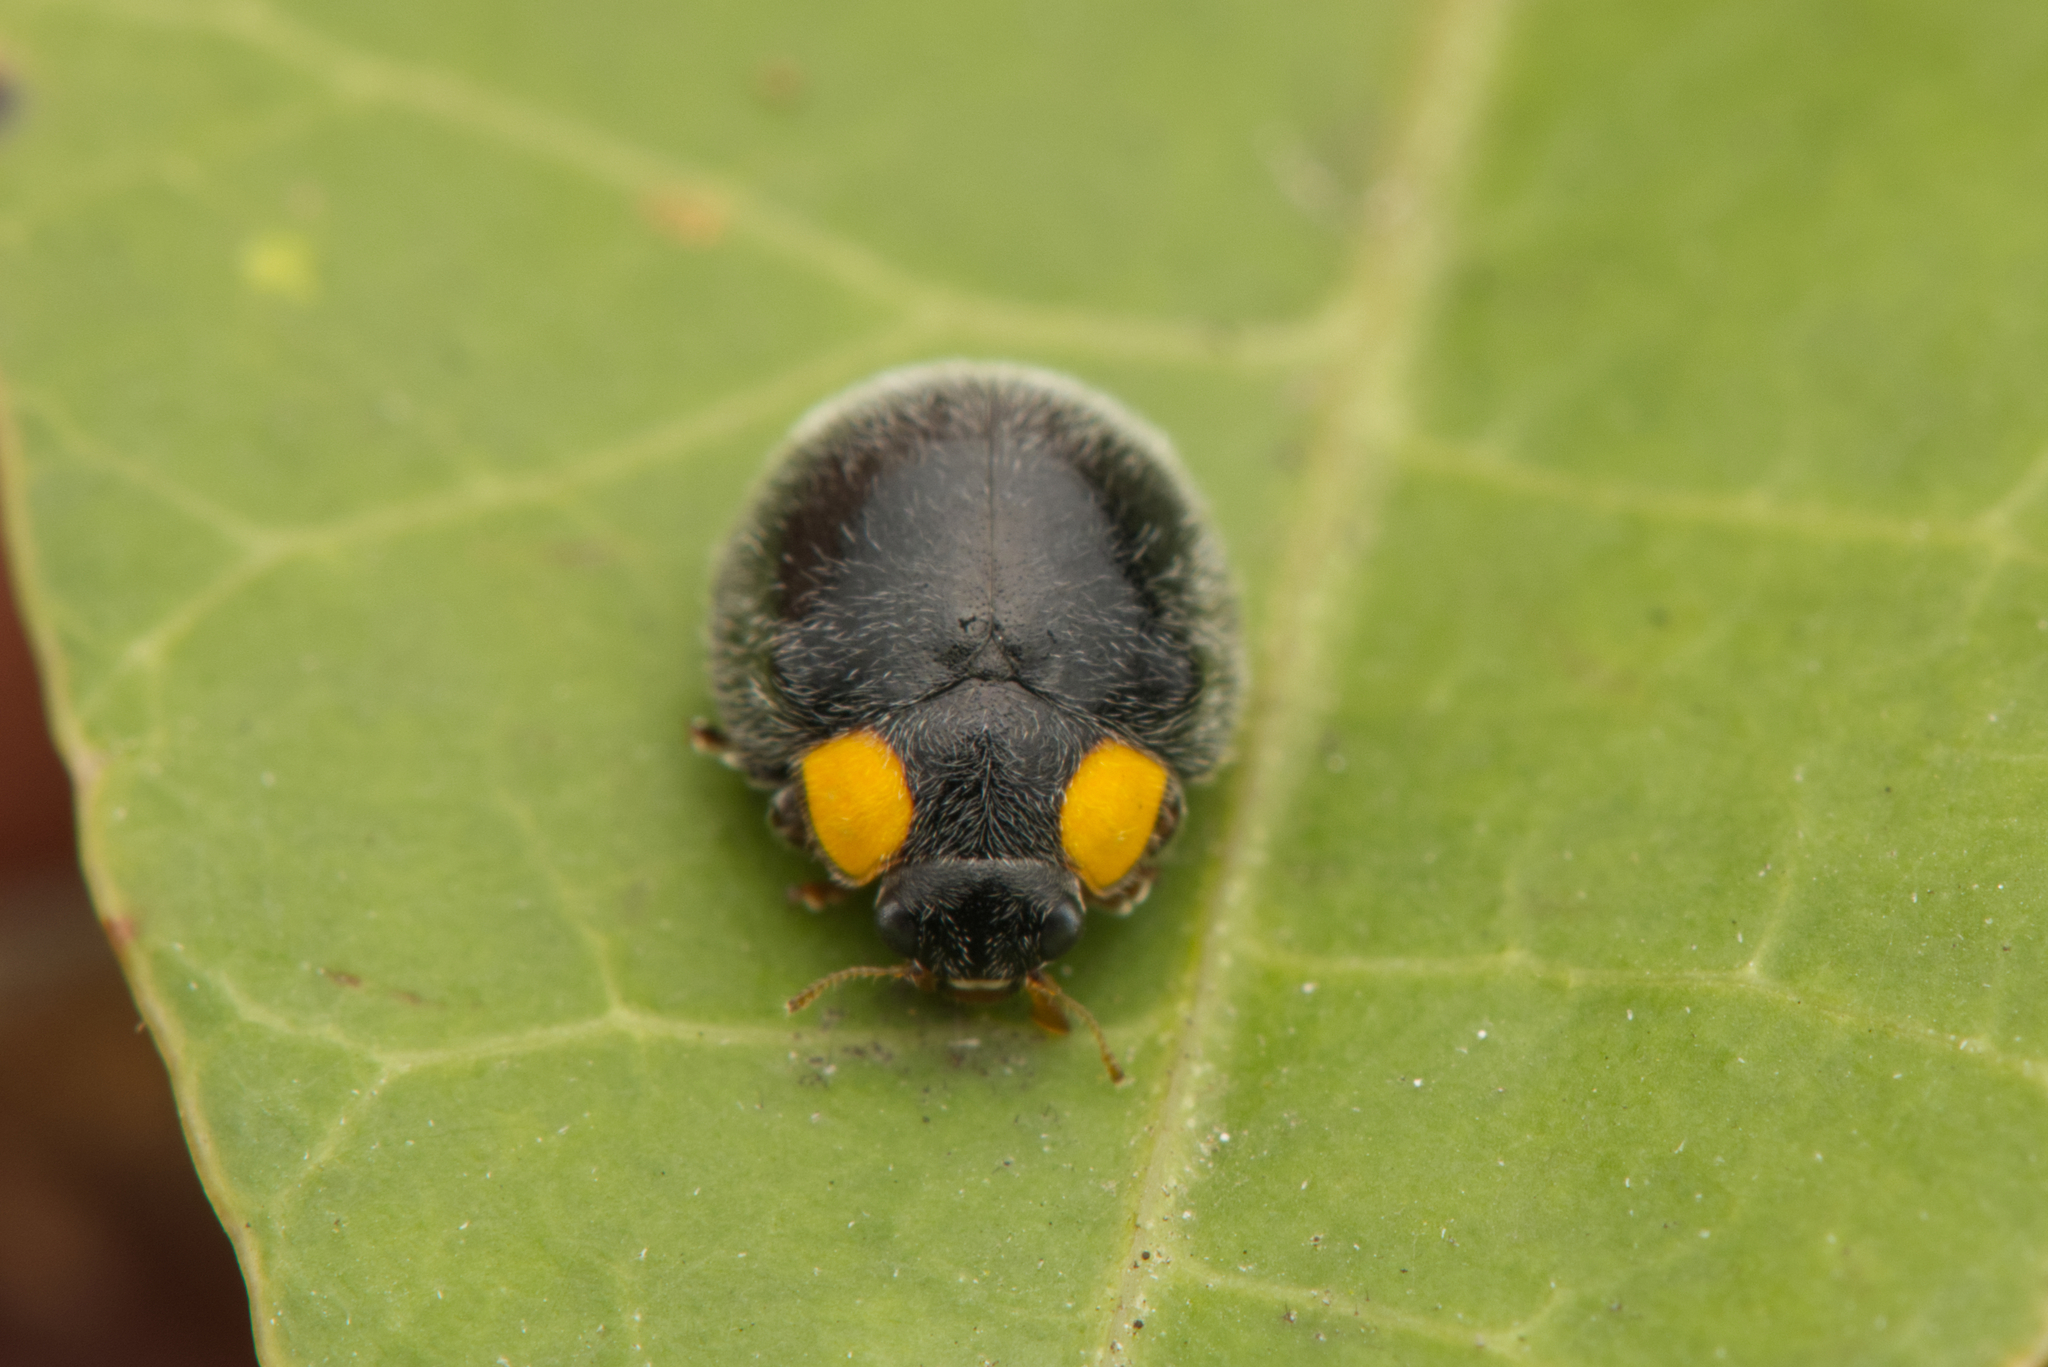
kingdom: Animalia
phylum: Arthropoda
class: Insecta
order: Coleoptera
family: Coccinellidae
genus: Scymnodes
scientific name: Scymnodes lividigaster
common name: Yellowshouldered lady beetle
